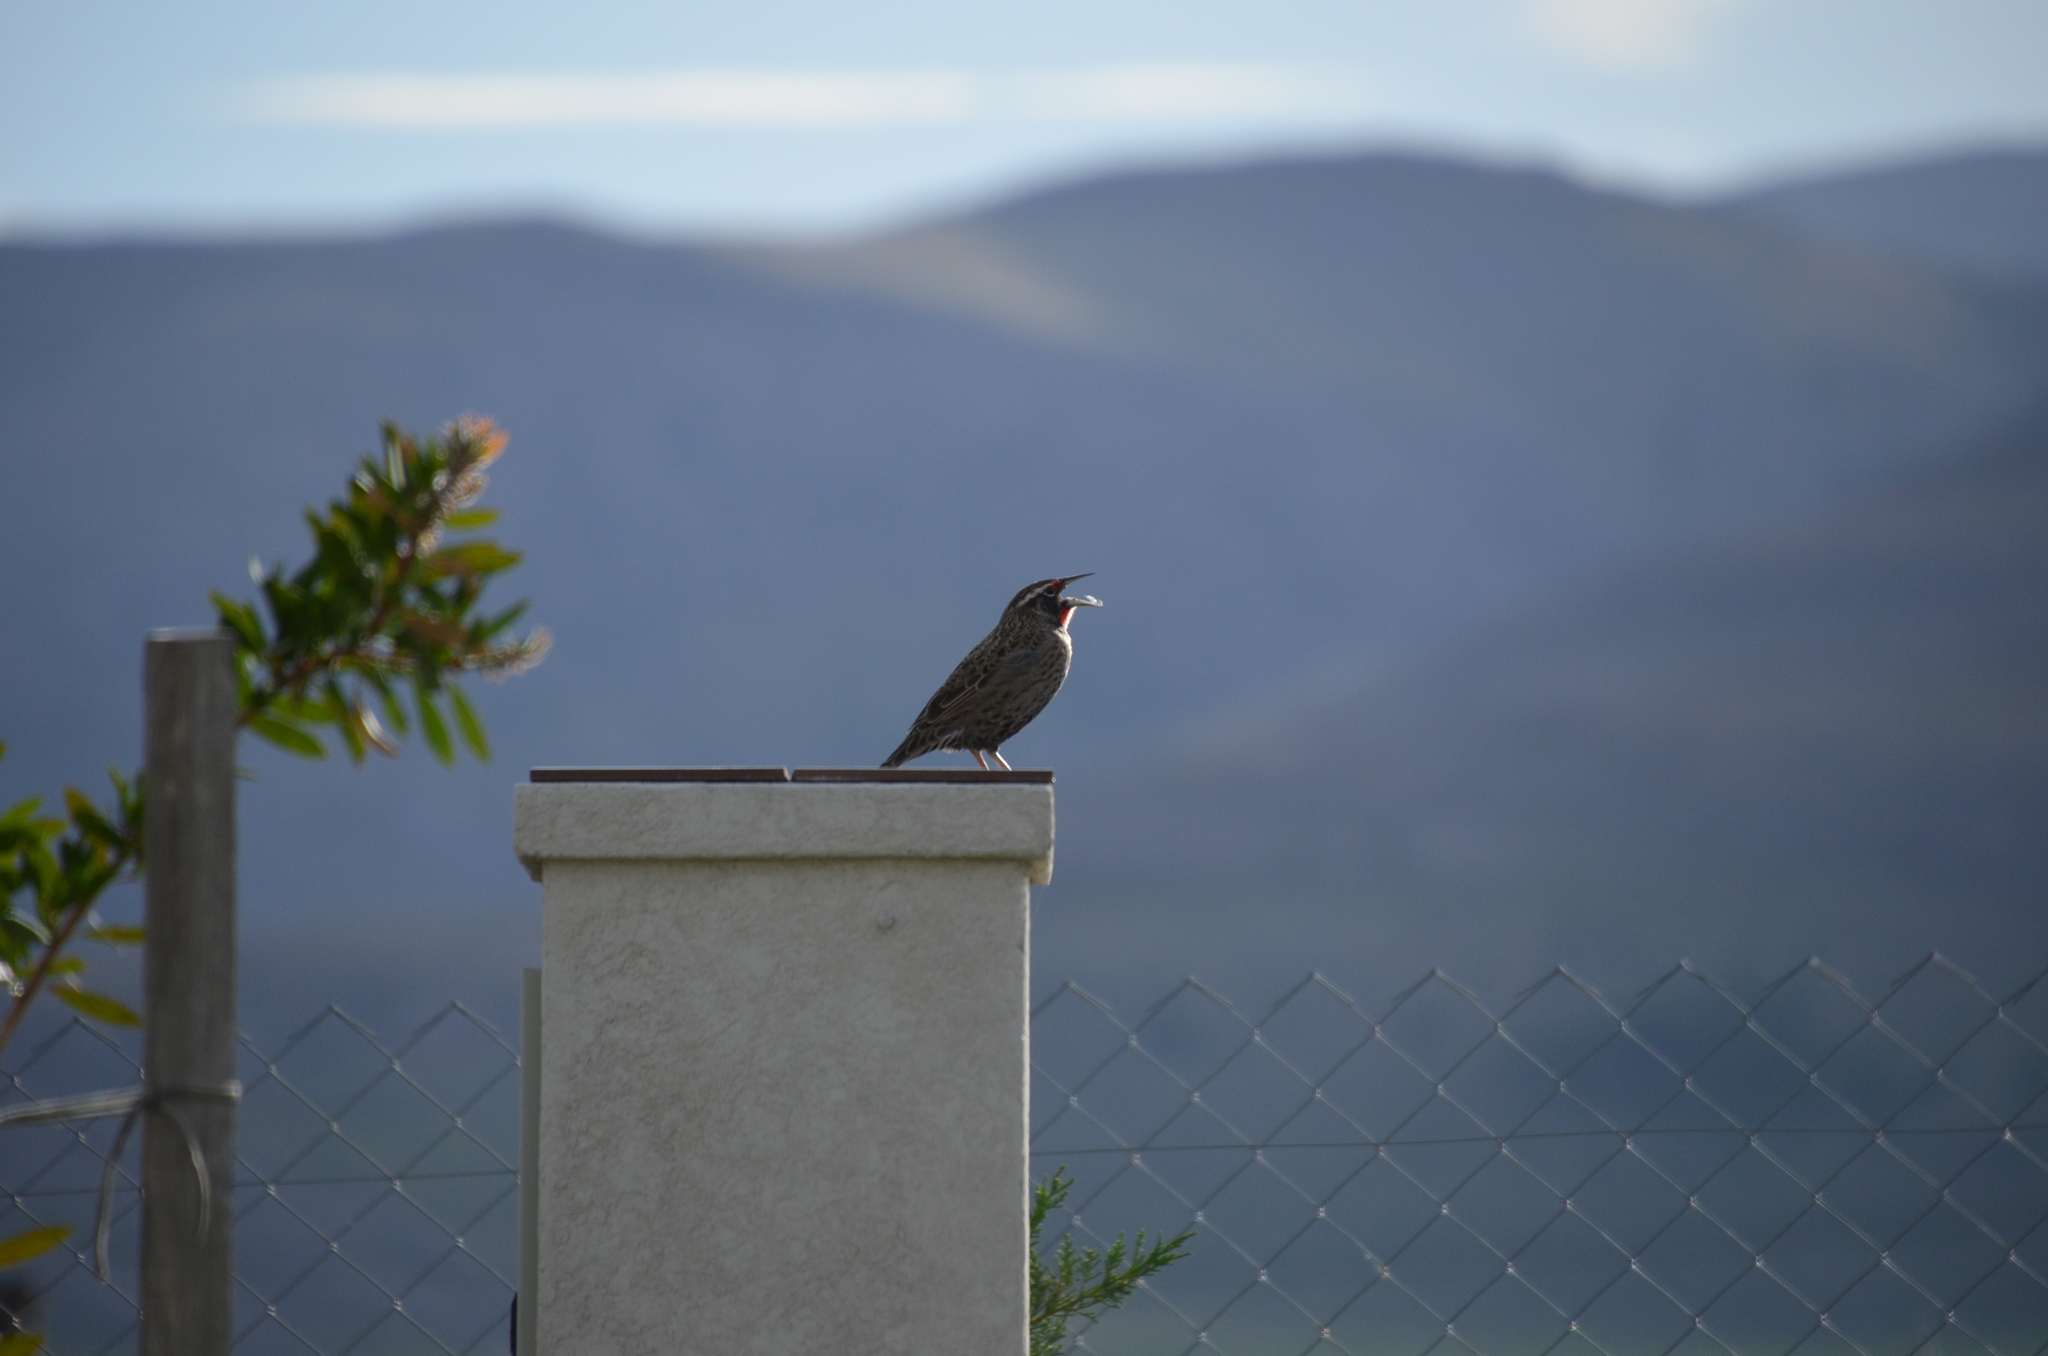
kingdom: Animalia
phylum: Chordata
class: Aves
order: Passeriformes
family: Icteridae
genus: Sturnella
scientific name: Sturnella loyca
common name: Long-tailed meadowlark
